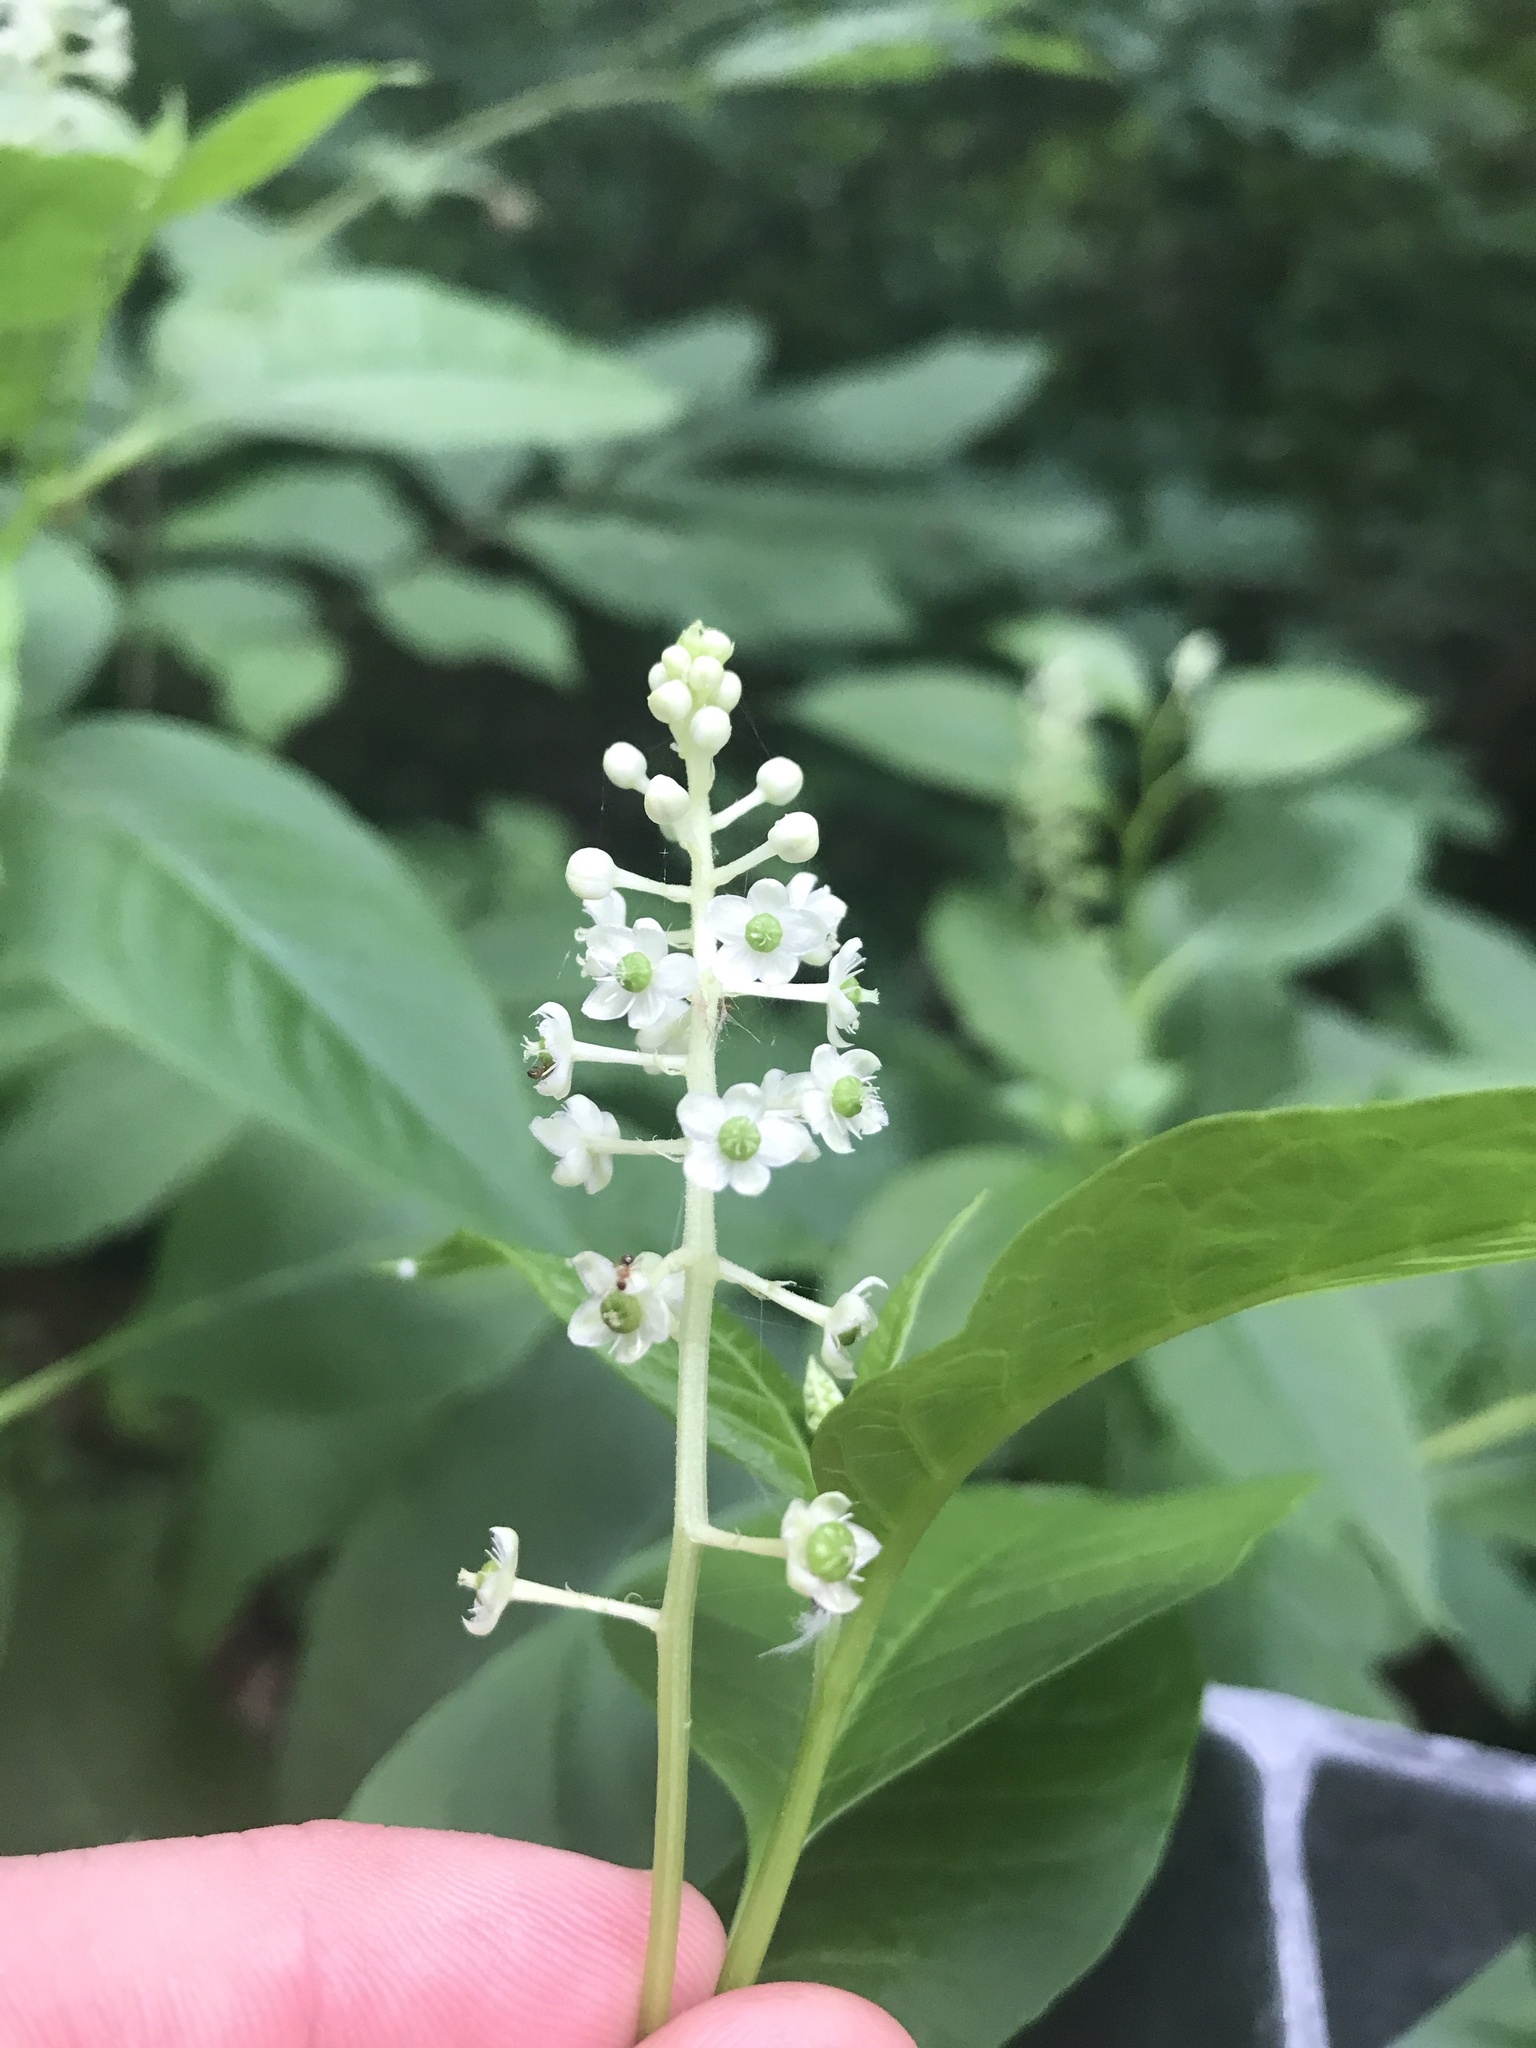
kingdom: Plantae
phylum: Tracheophyta
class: Magnoliopsida
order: Caryophyllales
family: Phytolaccaceae
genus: Phytolacca
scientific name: Phytolacca americana
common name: American pokeweed
